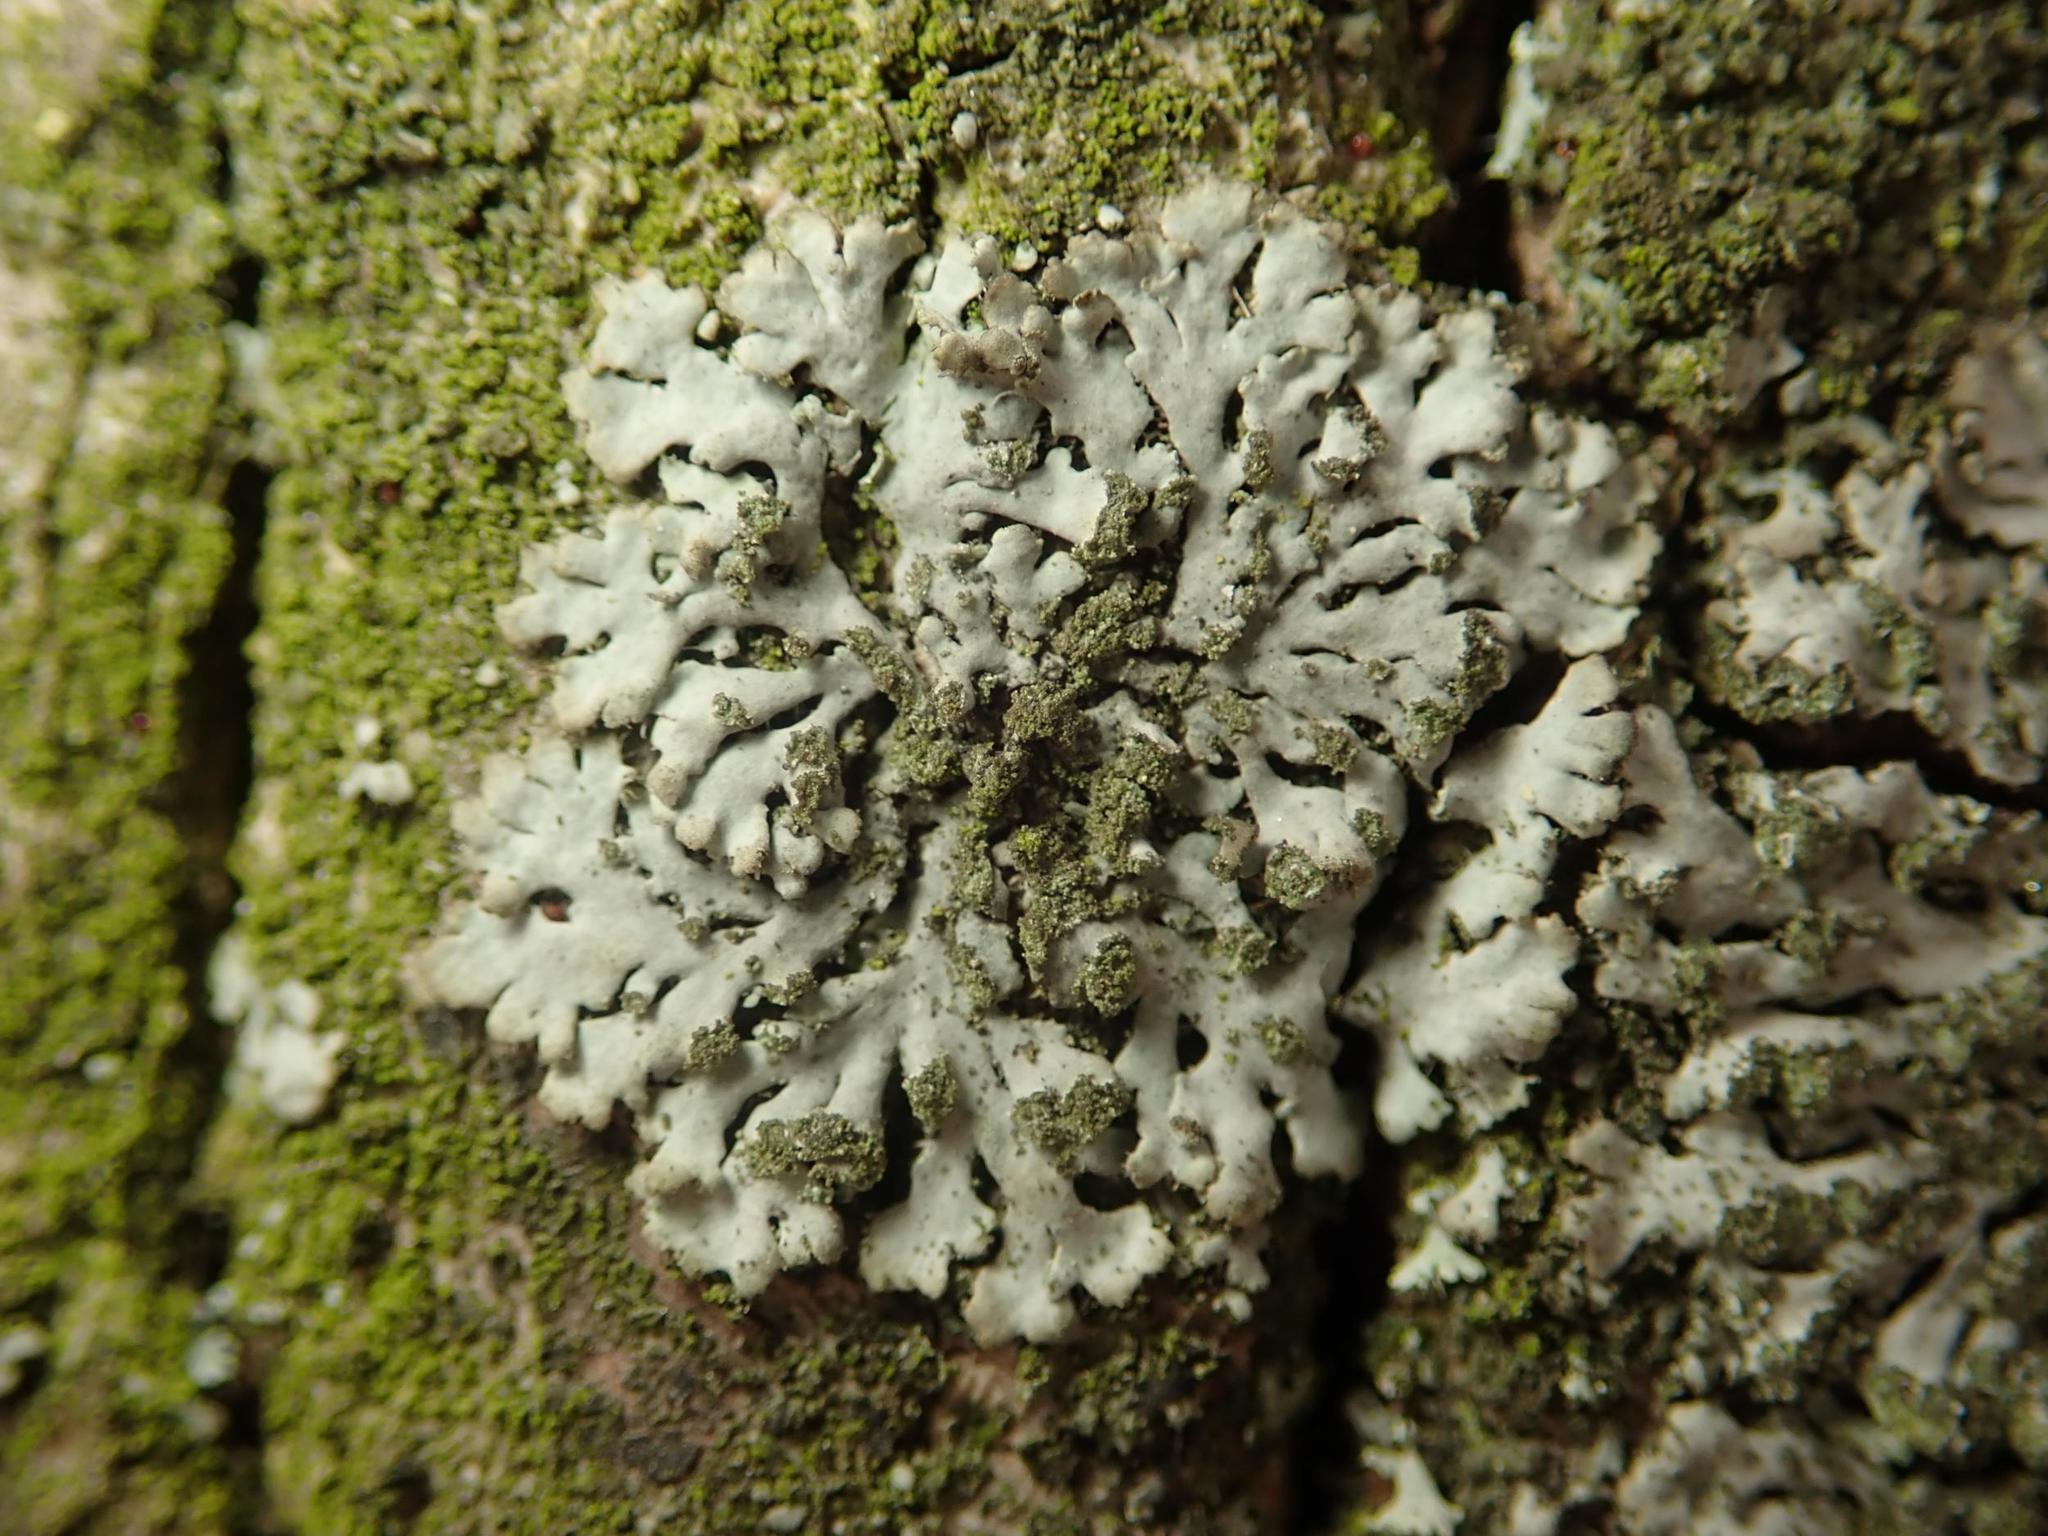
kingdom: Fungi
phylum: Ascomycota
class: Lecanoromycetes
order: Caliciales
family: Physciaceae
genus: Phaeophyscia
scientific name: Phaeophyscia orbicularis
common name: Mealy shadow lichen
